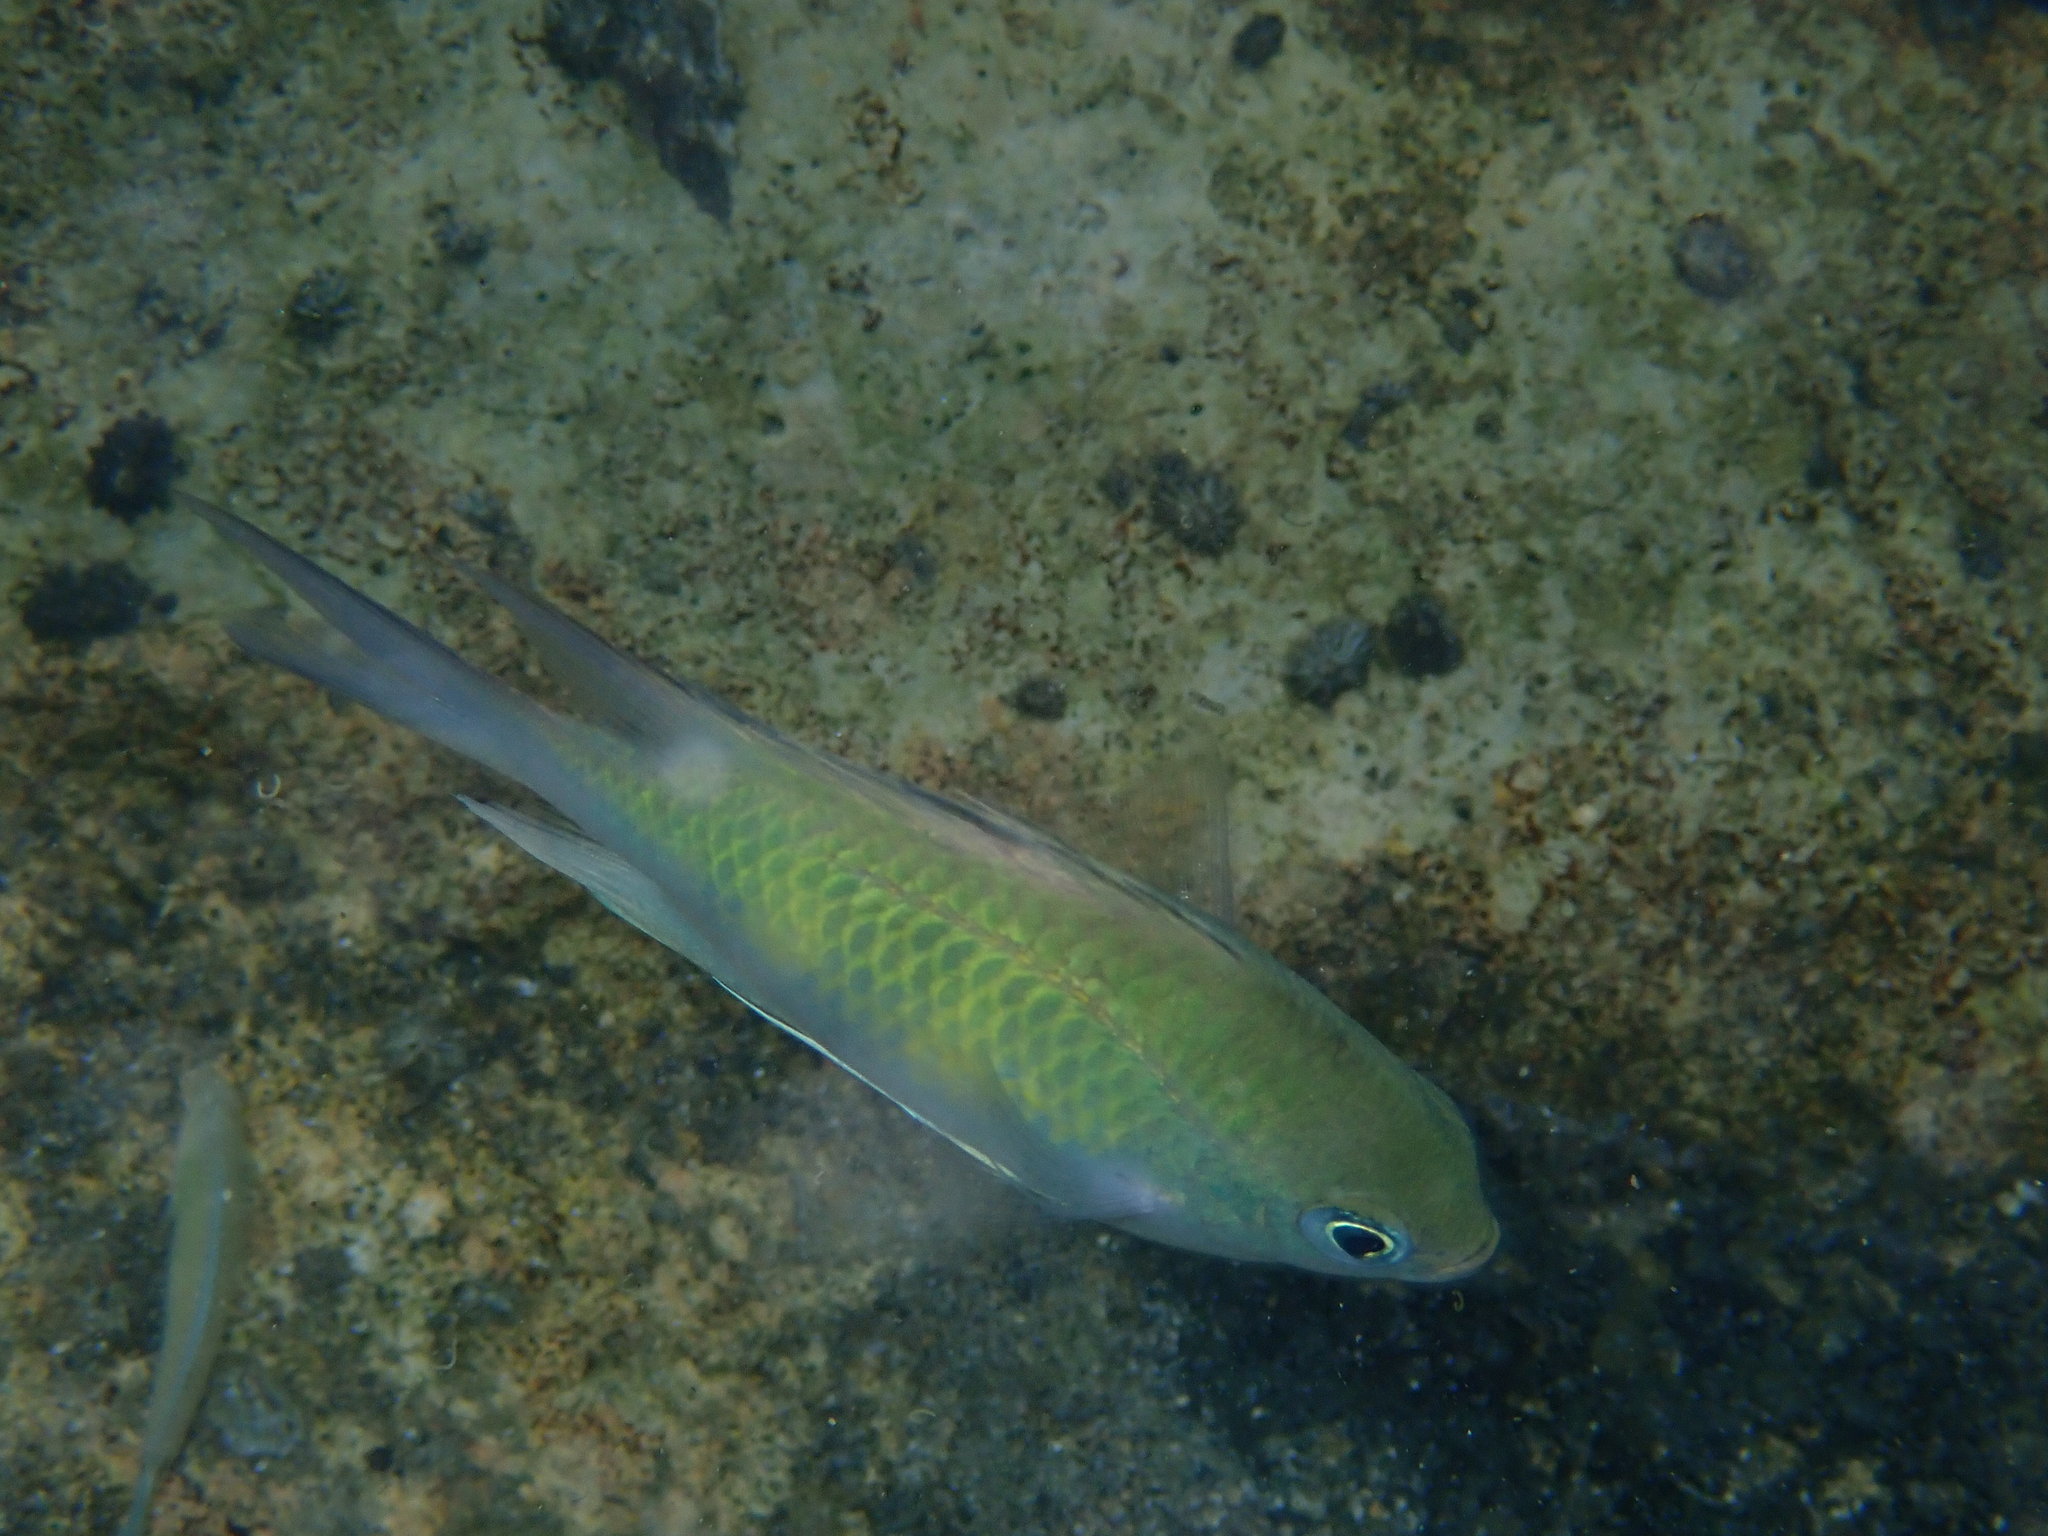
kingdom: Animalia
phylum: Chordata
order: Perciformes
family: Pomacentridae
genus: Amblyglyphidodon
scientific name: Amblyglyphidodon curacao
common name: Staghorn damsel
